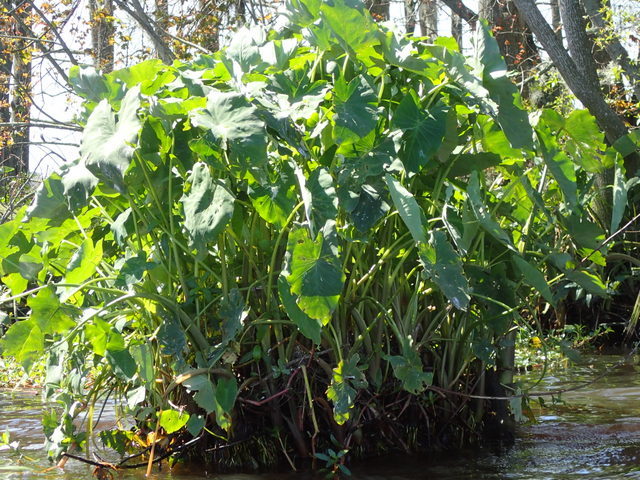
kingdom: Plantae
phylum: Tracheophyta
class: Liliopsida
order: Alismatales
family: Araceae
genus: Colocasia
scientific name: Colocasia esculenta
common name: Taro
